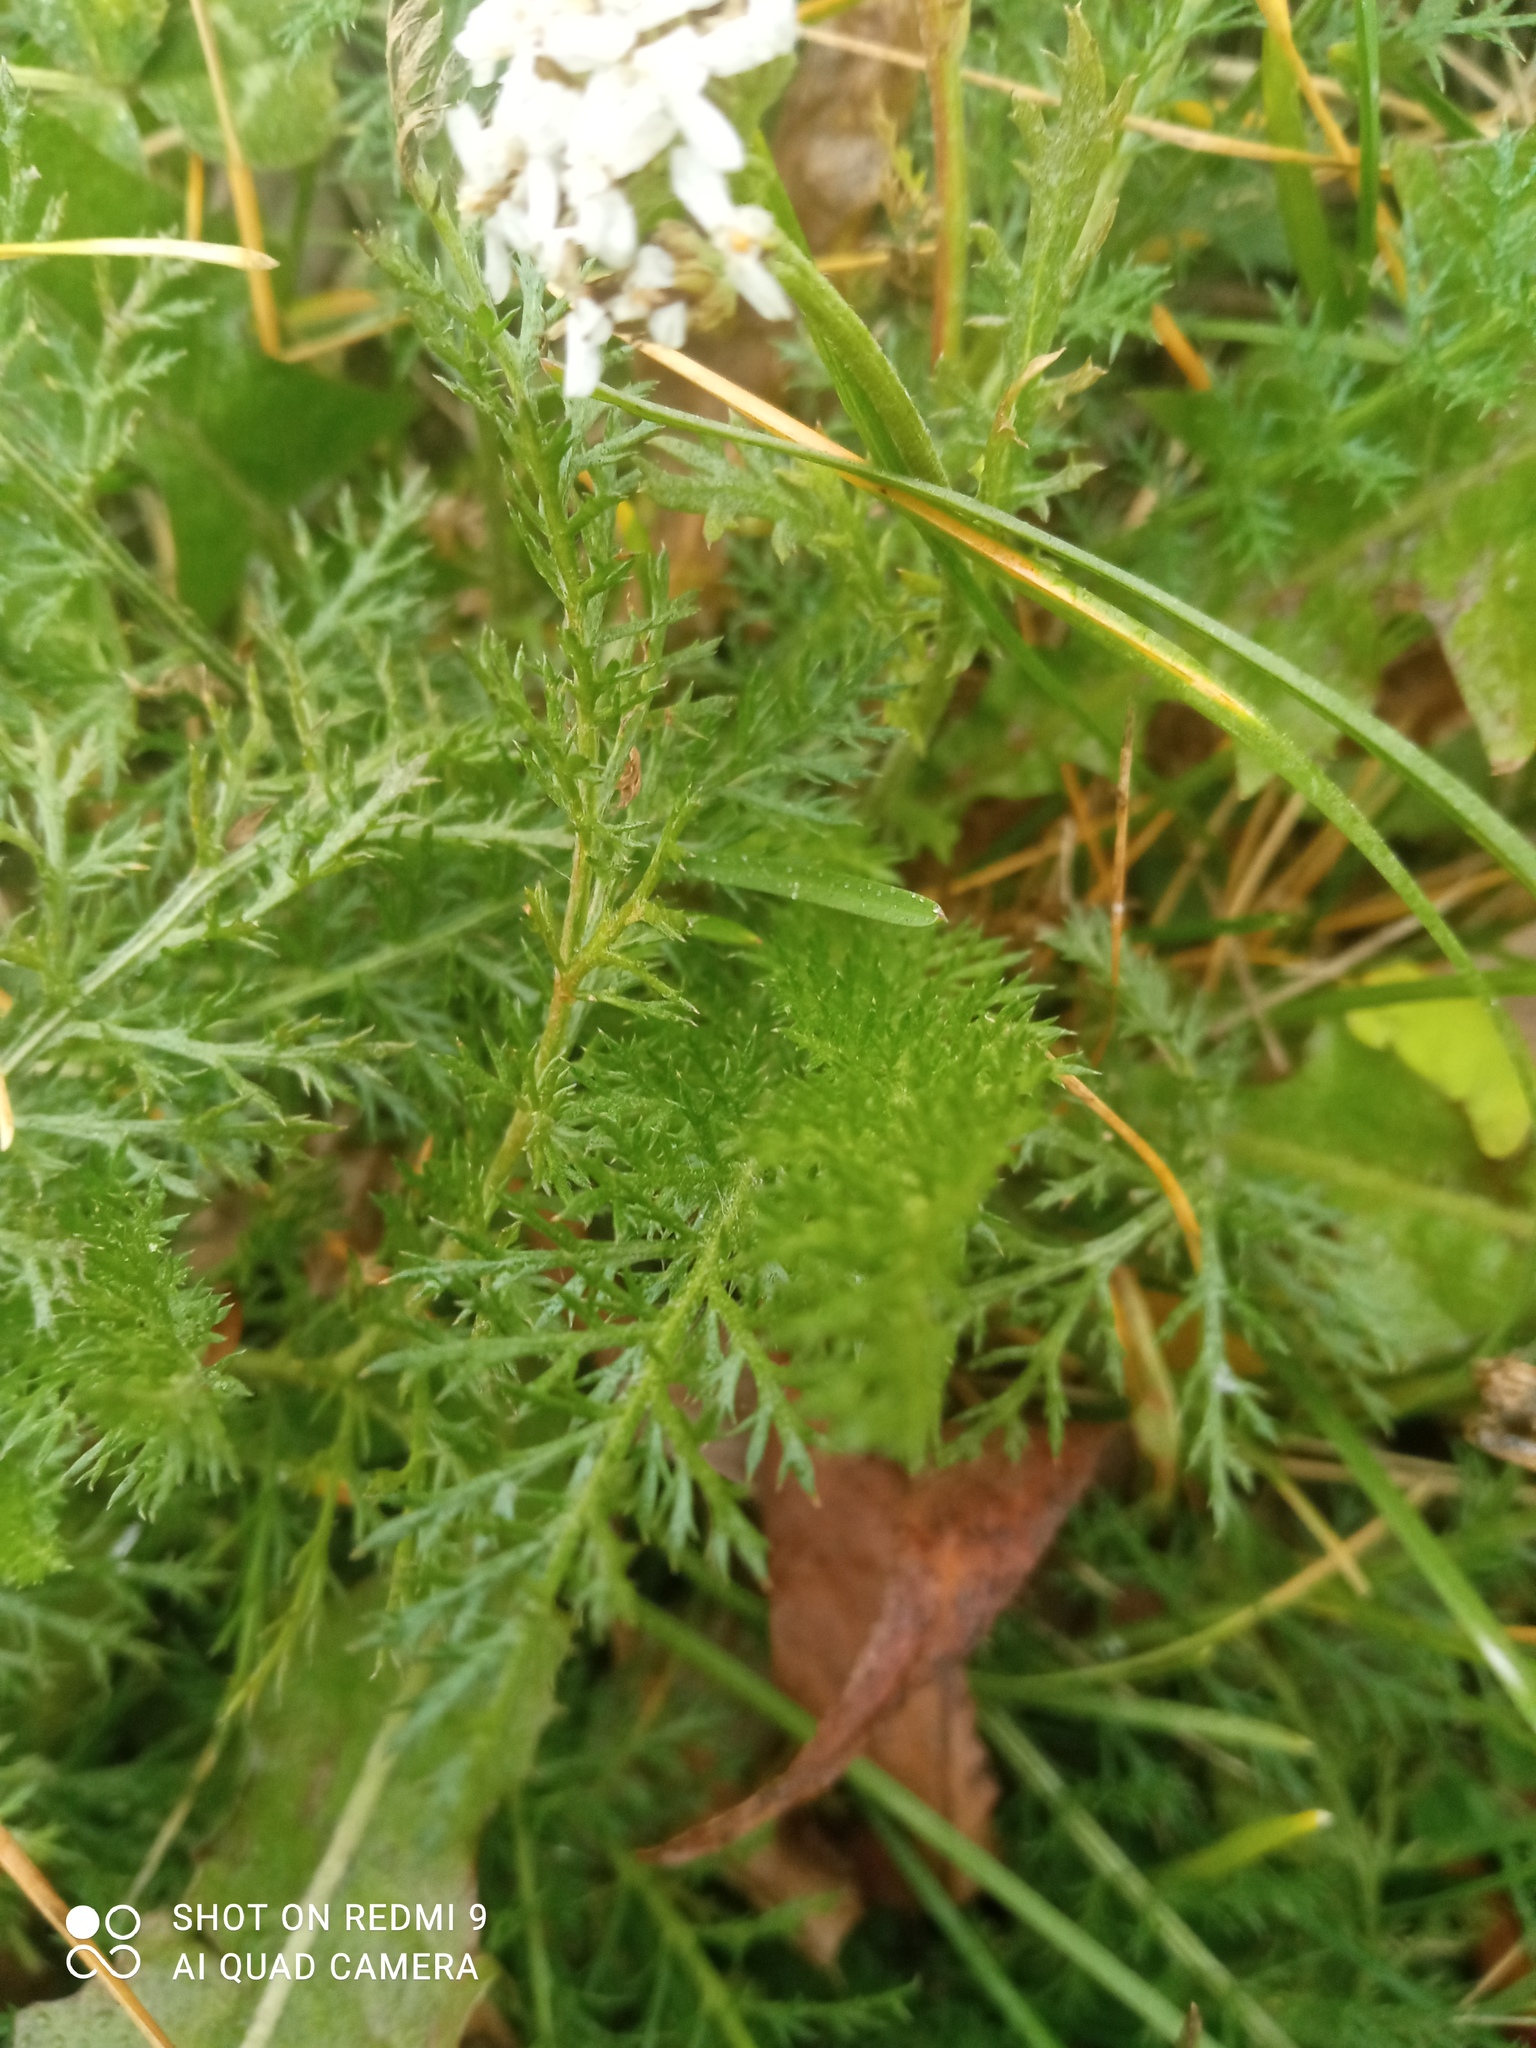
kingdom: Plantae
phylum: Tracheophyta
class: Magnoliopsida
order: Asterales
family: Asteraceae
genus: Achillea
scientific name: Achillea millefolium
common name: Yarrow
